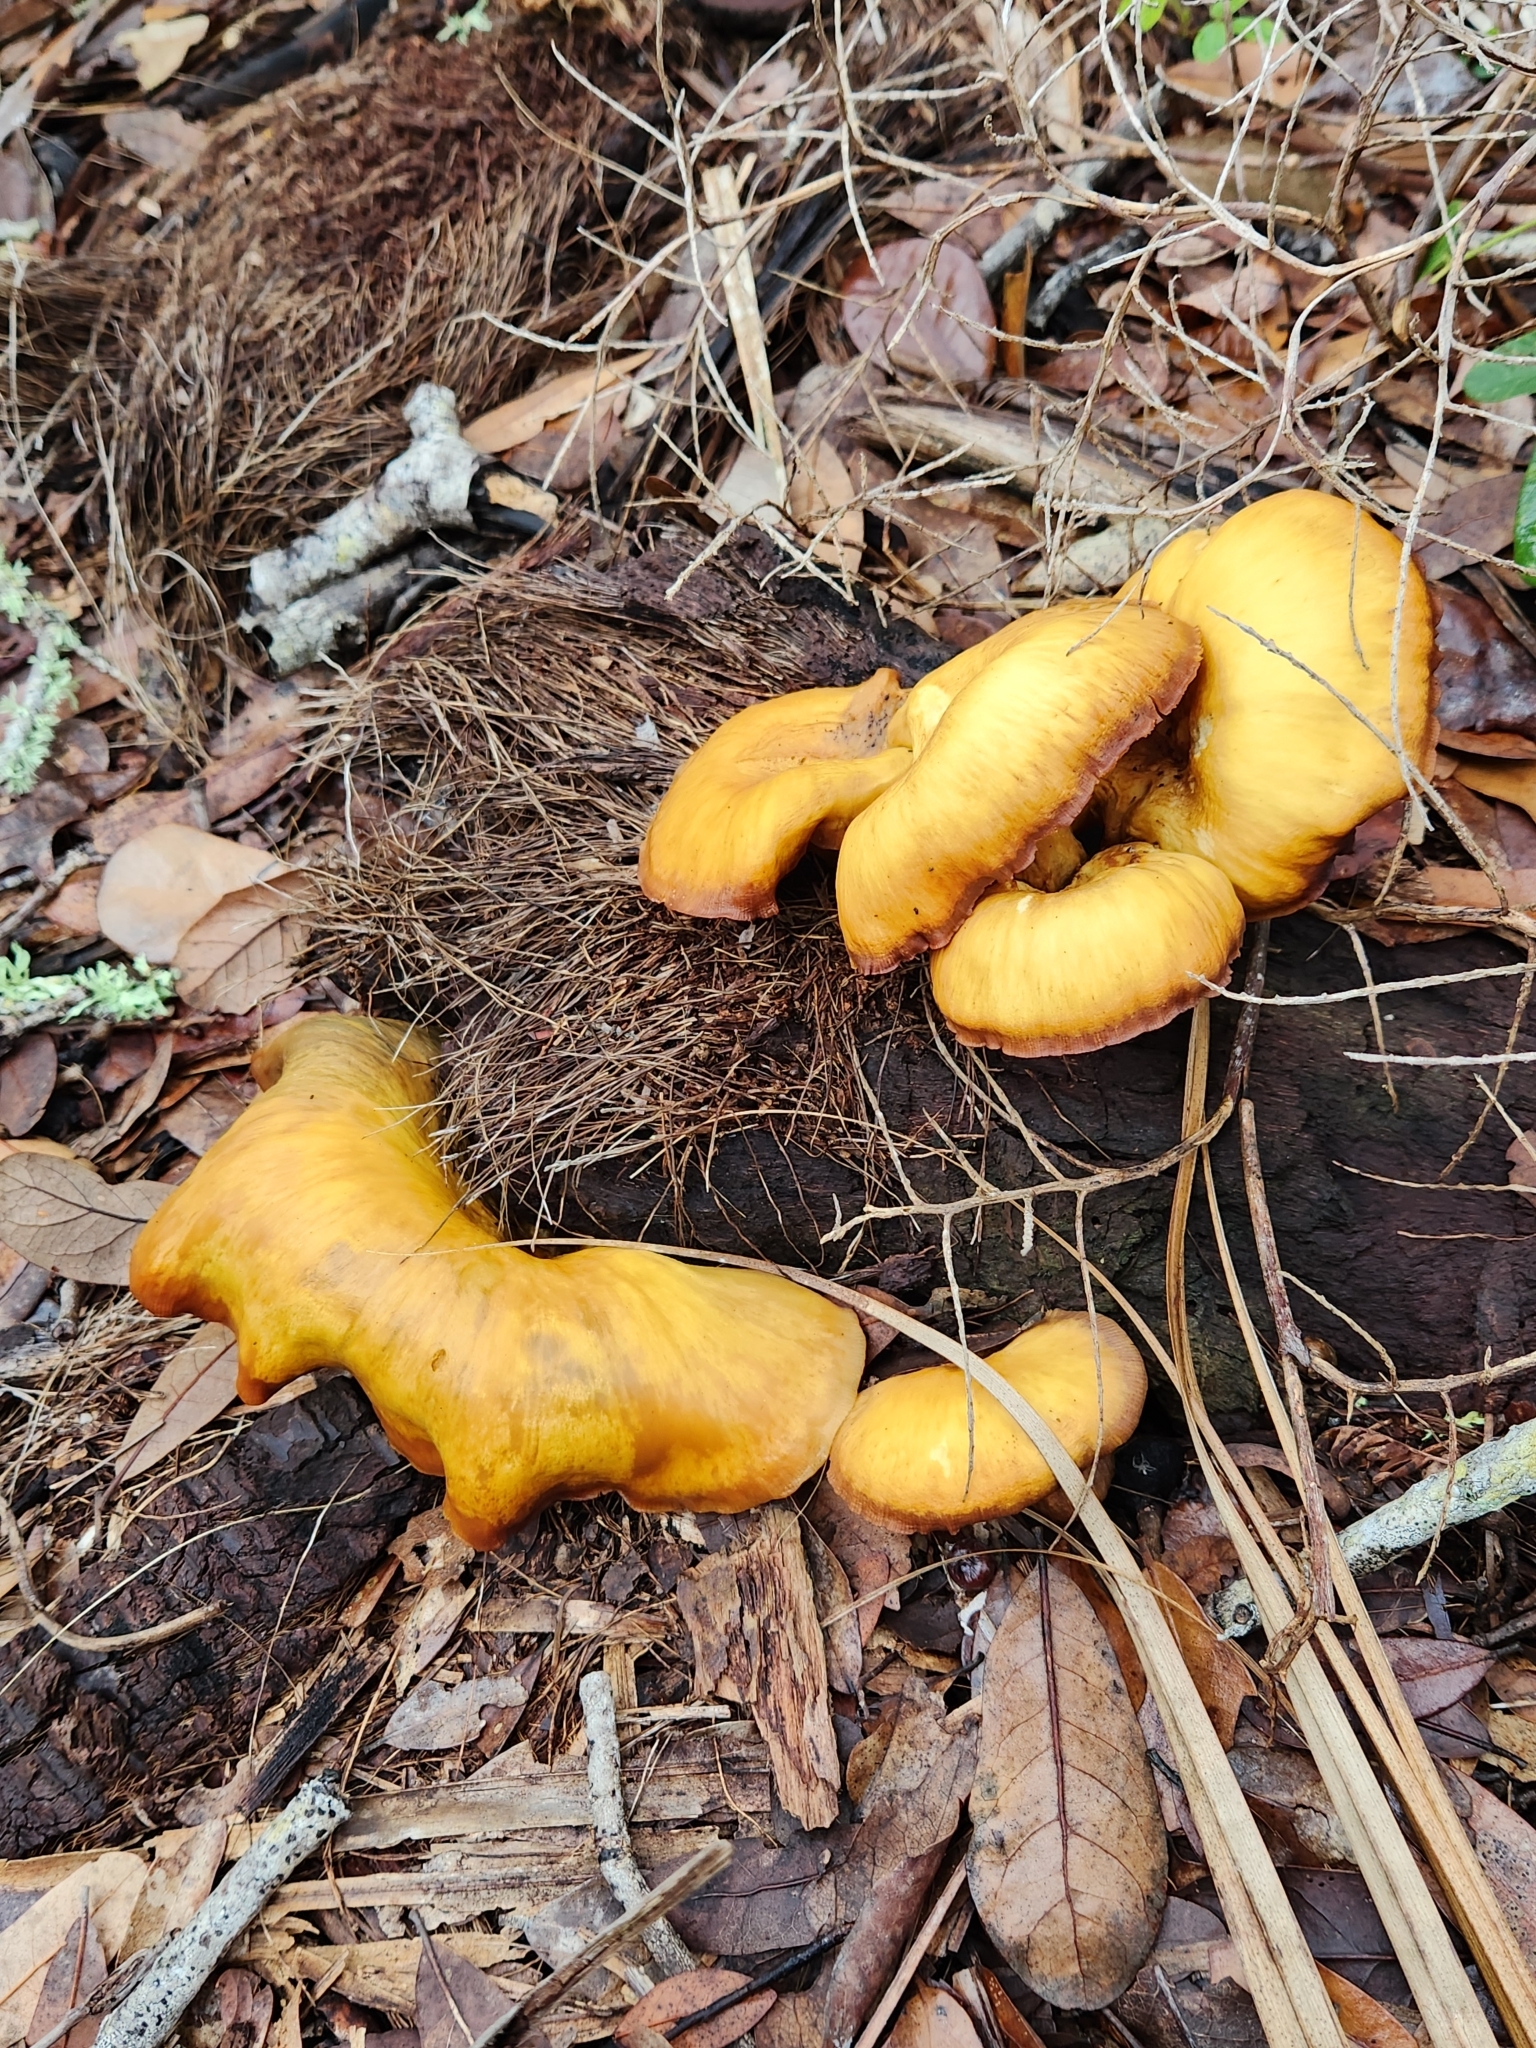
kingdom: Fungi
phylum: Basidiomycota
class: Agaricomycetes
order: Agaricales
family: Omphalotaceae
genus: Omphalotus
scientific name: Omphalotus subilludens
